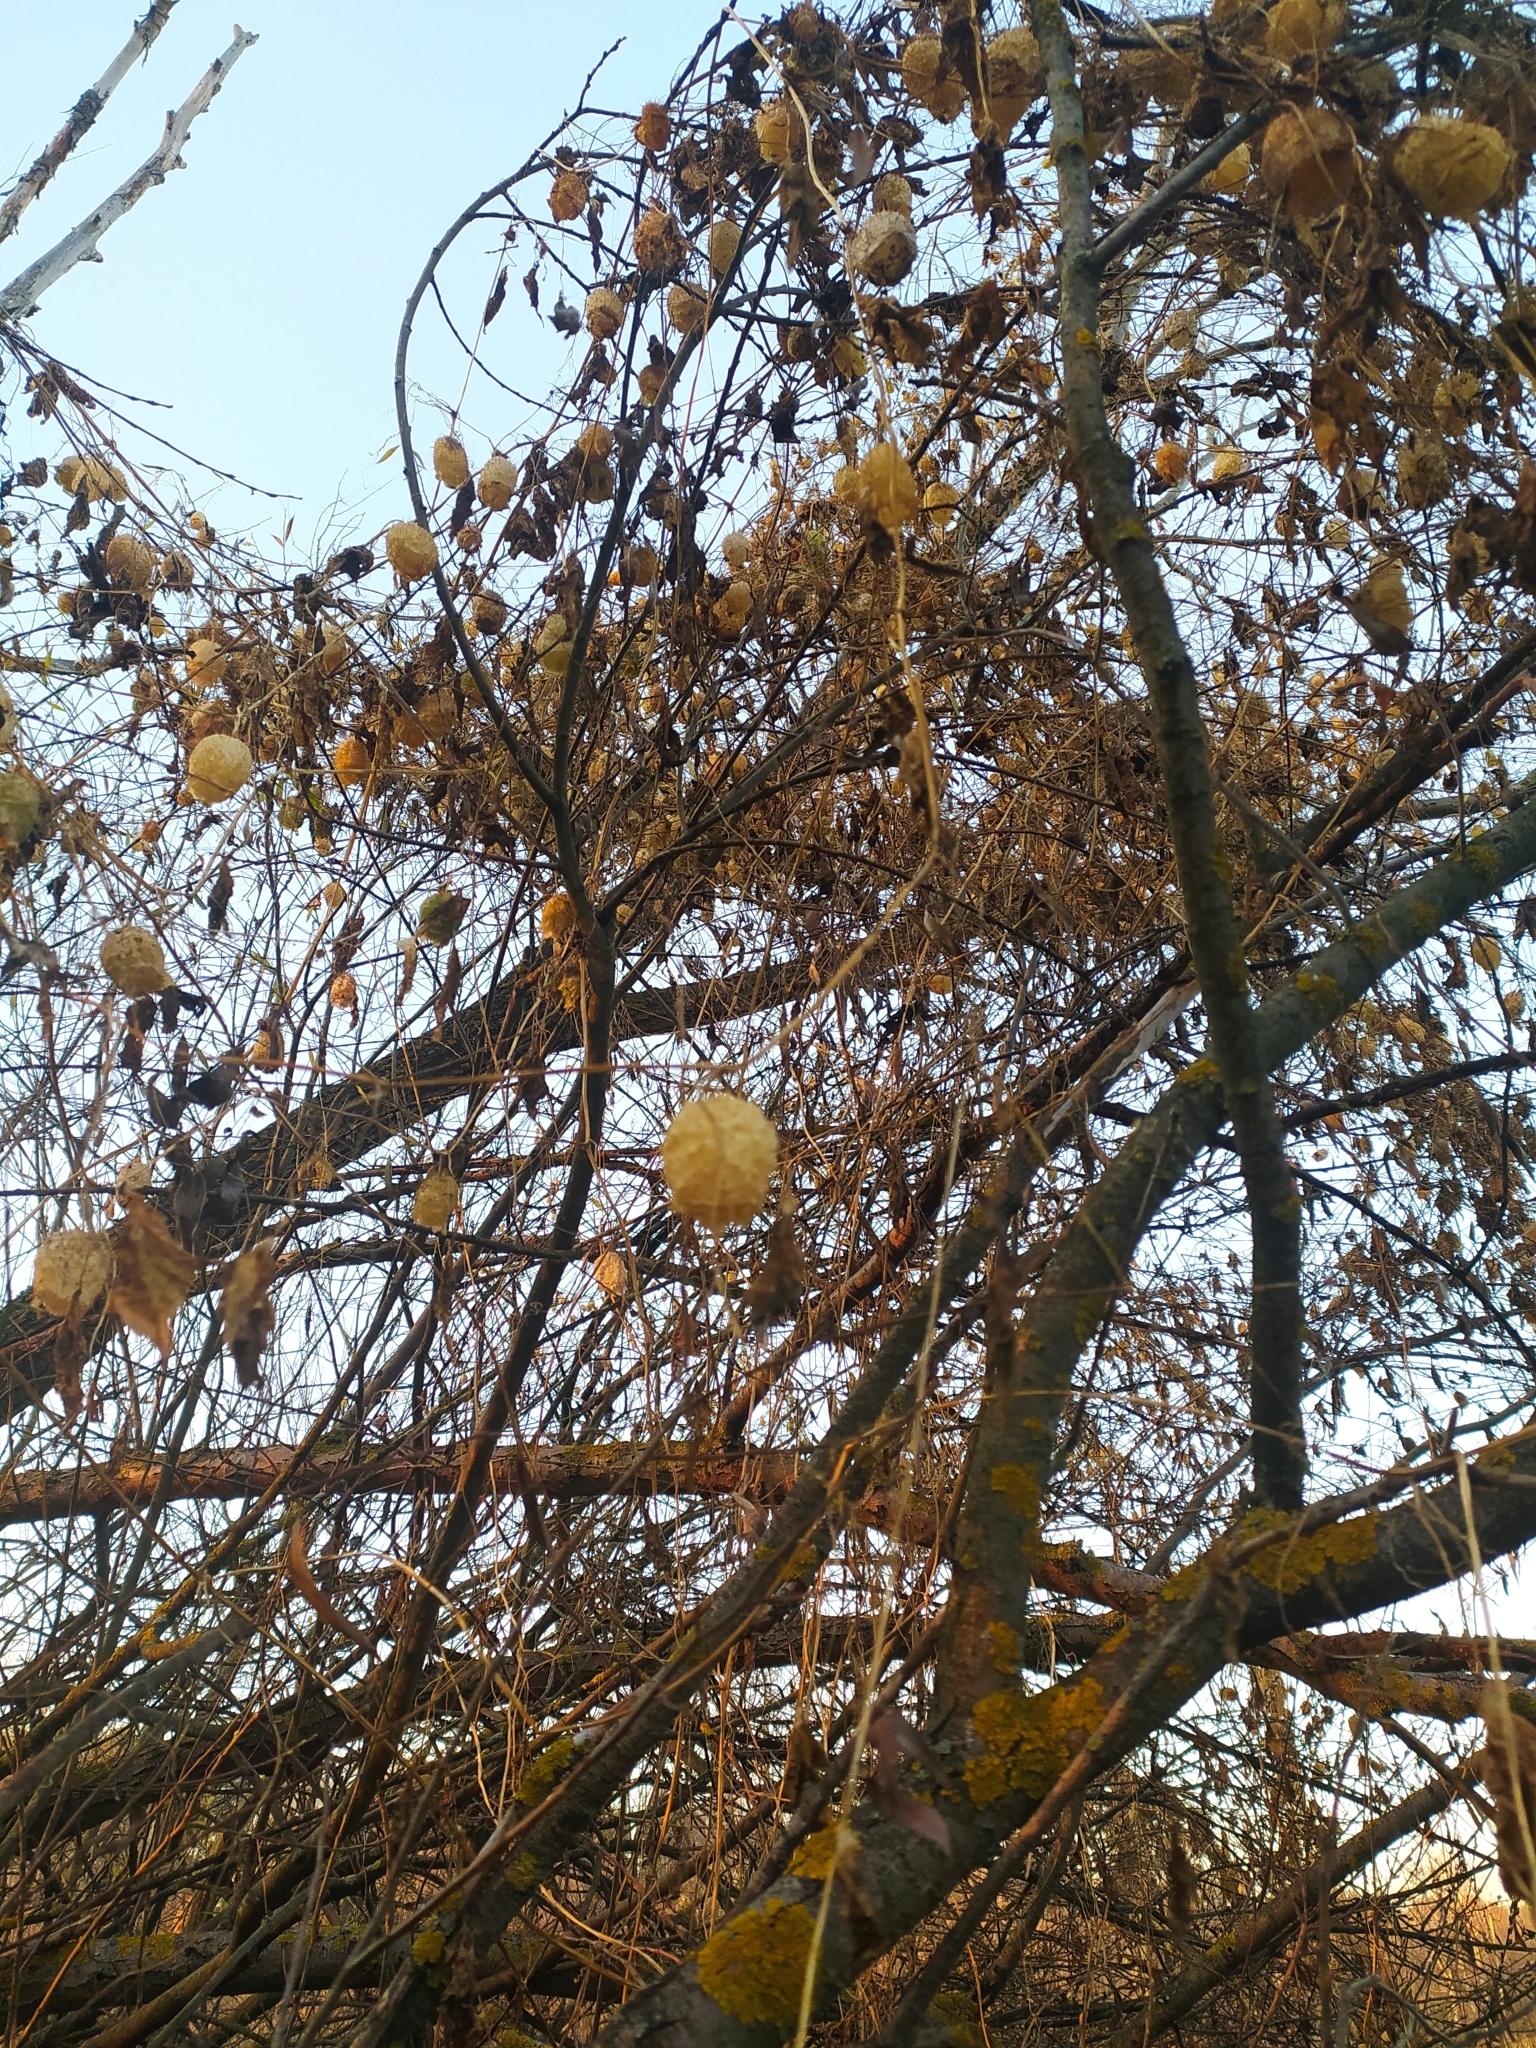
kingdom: Plantae
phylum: Tracheophyta
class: Magnoliopsida
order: Cucurbitales
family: Cucurbitaceae
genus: Echinocystis
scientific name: Echinocystis lobata
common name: Wild cucumber
